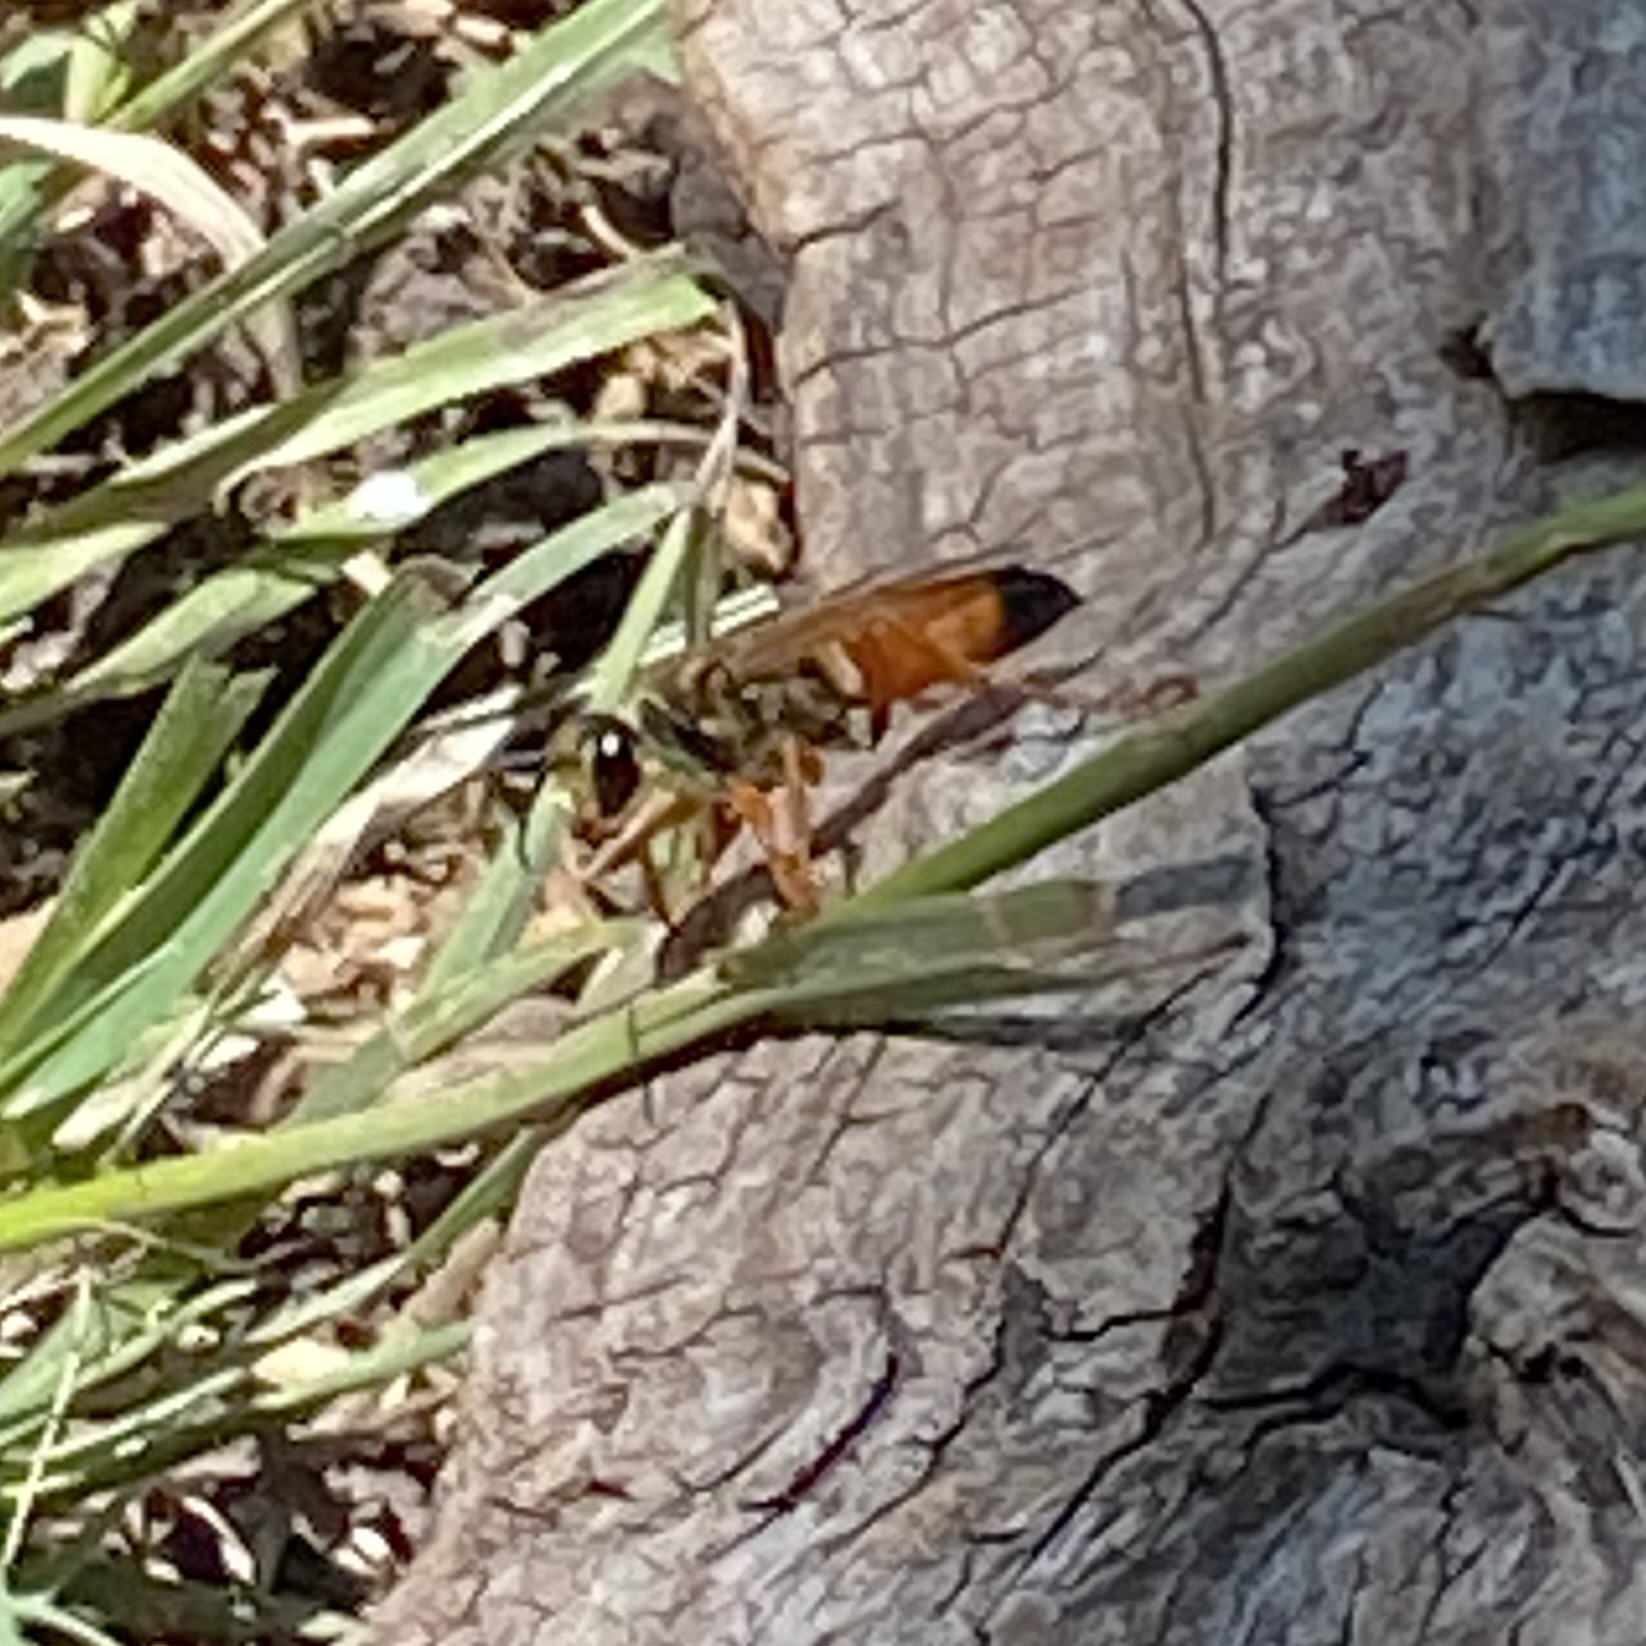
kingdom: Animalia
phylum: Arthropoda
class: Insecta
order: Hymenoptera
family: Sphecidae
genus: Sphex
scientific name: Sphex ichneumoneus
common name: Great golden digger wasp
